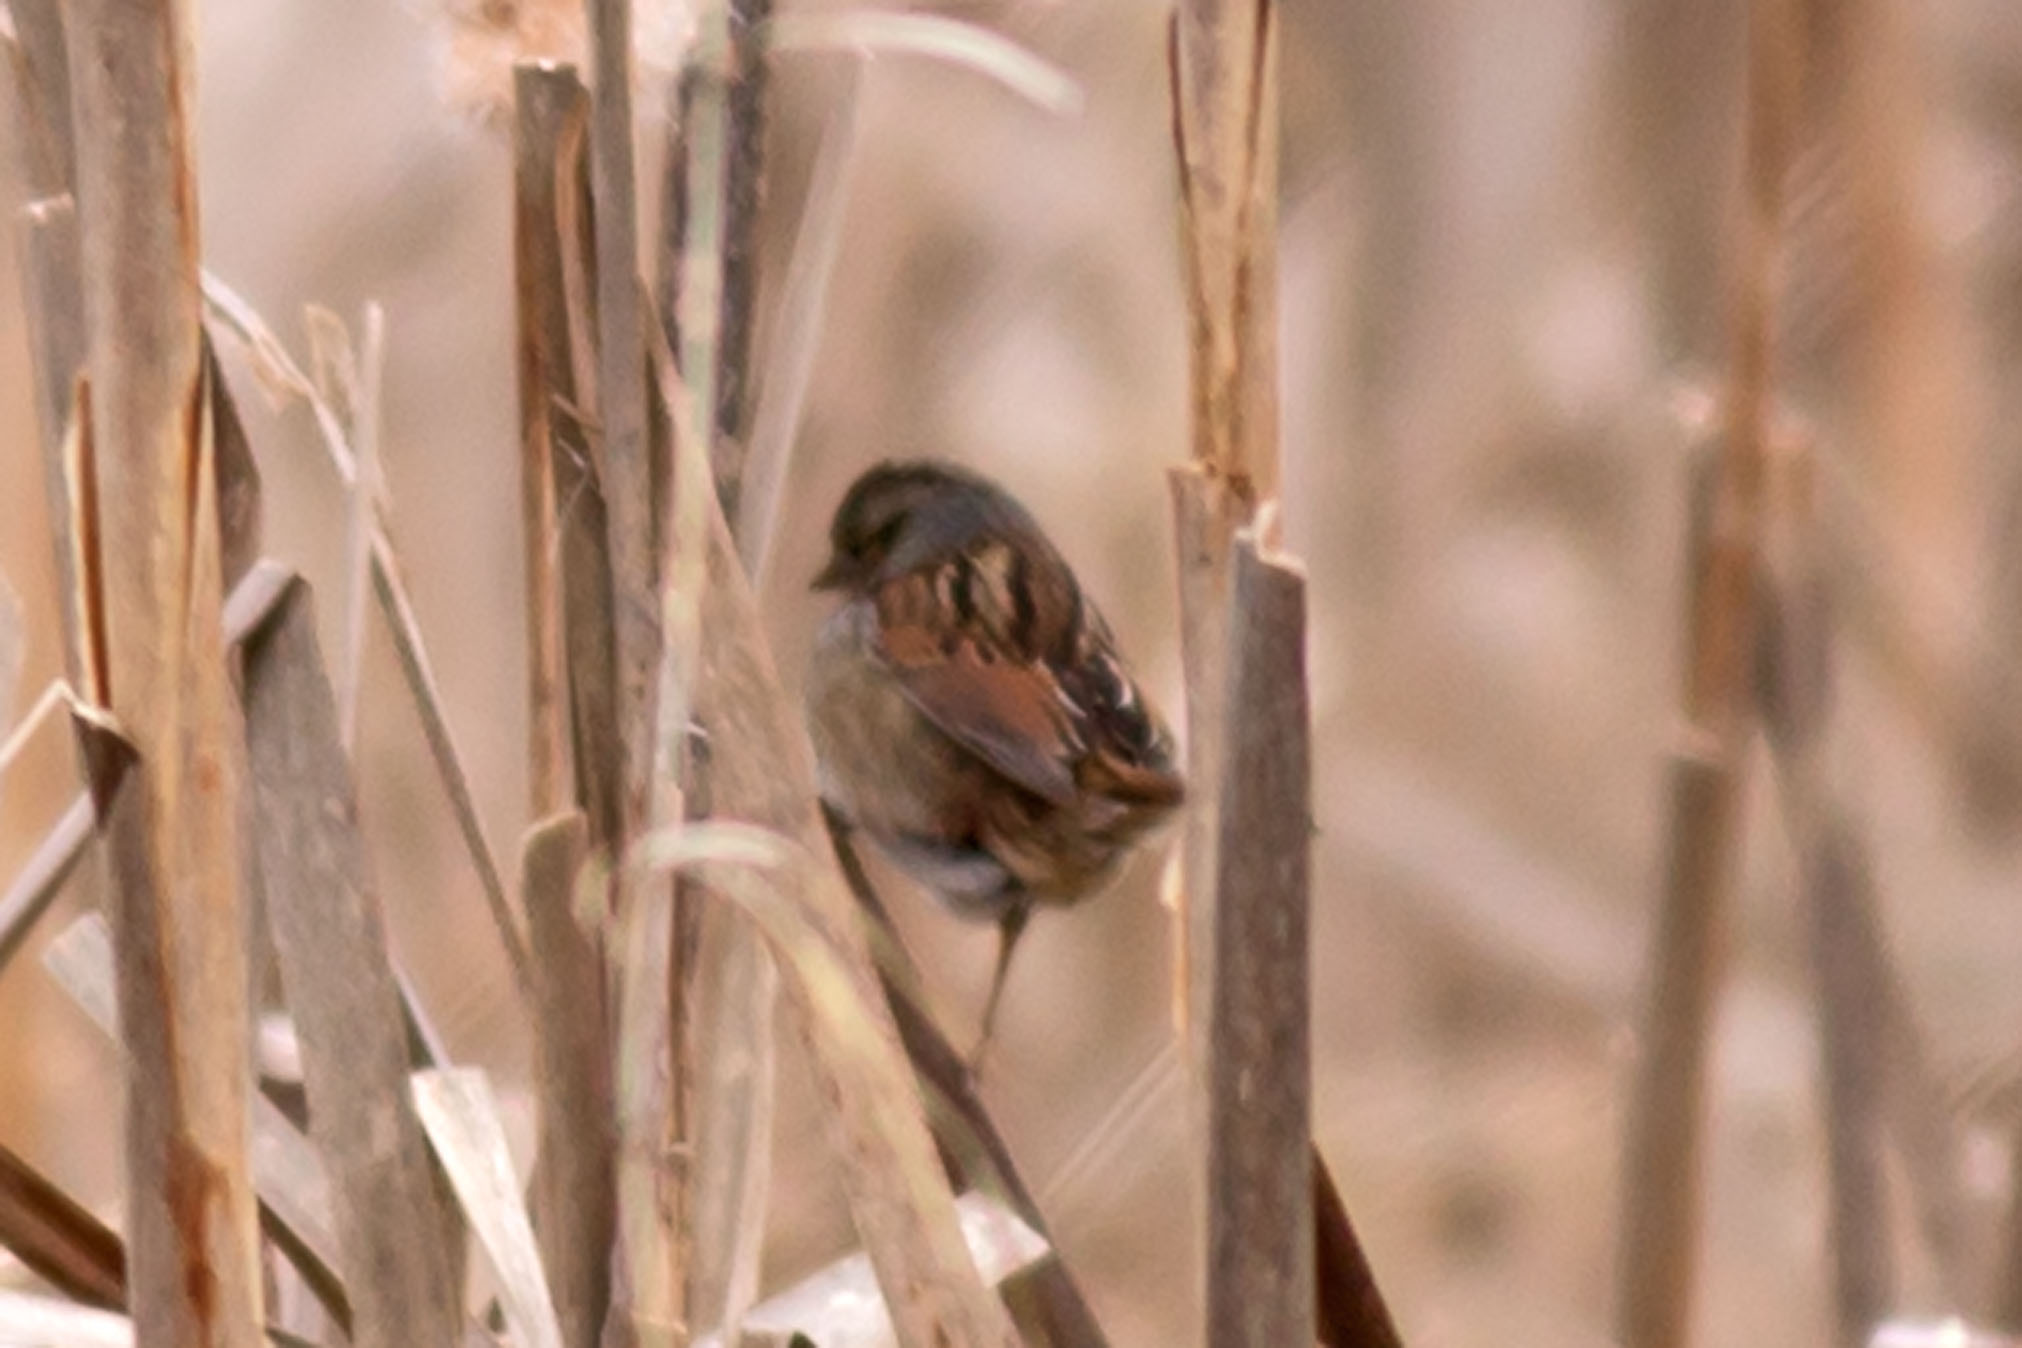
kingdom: Animalia
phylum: Chordata
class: Aves
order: Passeriformes
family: Passerellidae
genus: Melospiza
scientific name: Melospiza georgiana
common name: Swamp sparrow
